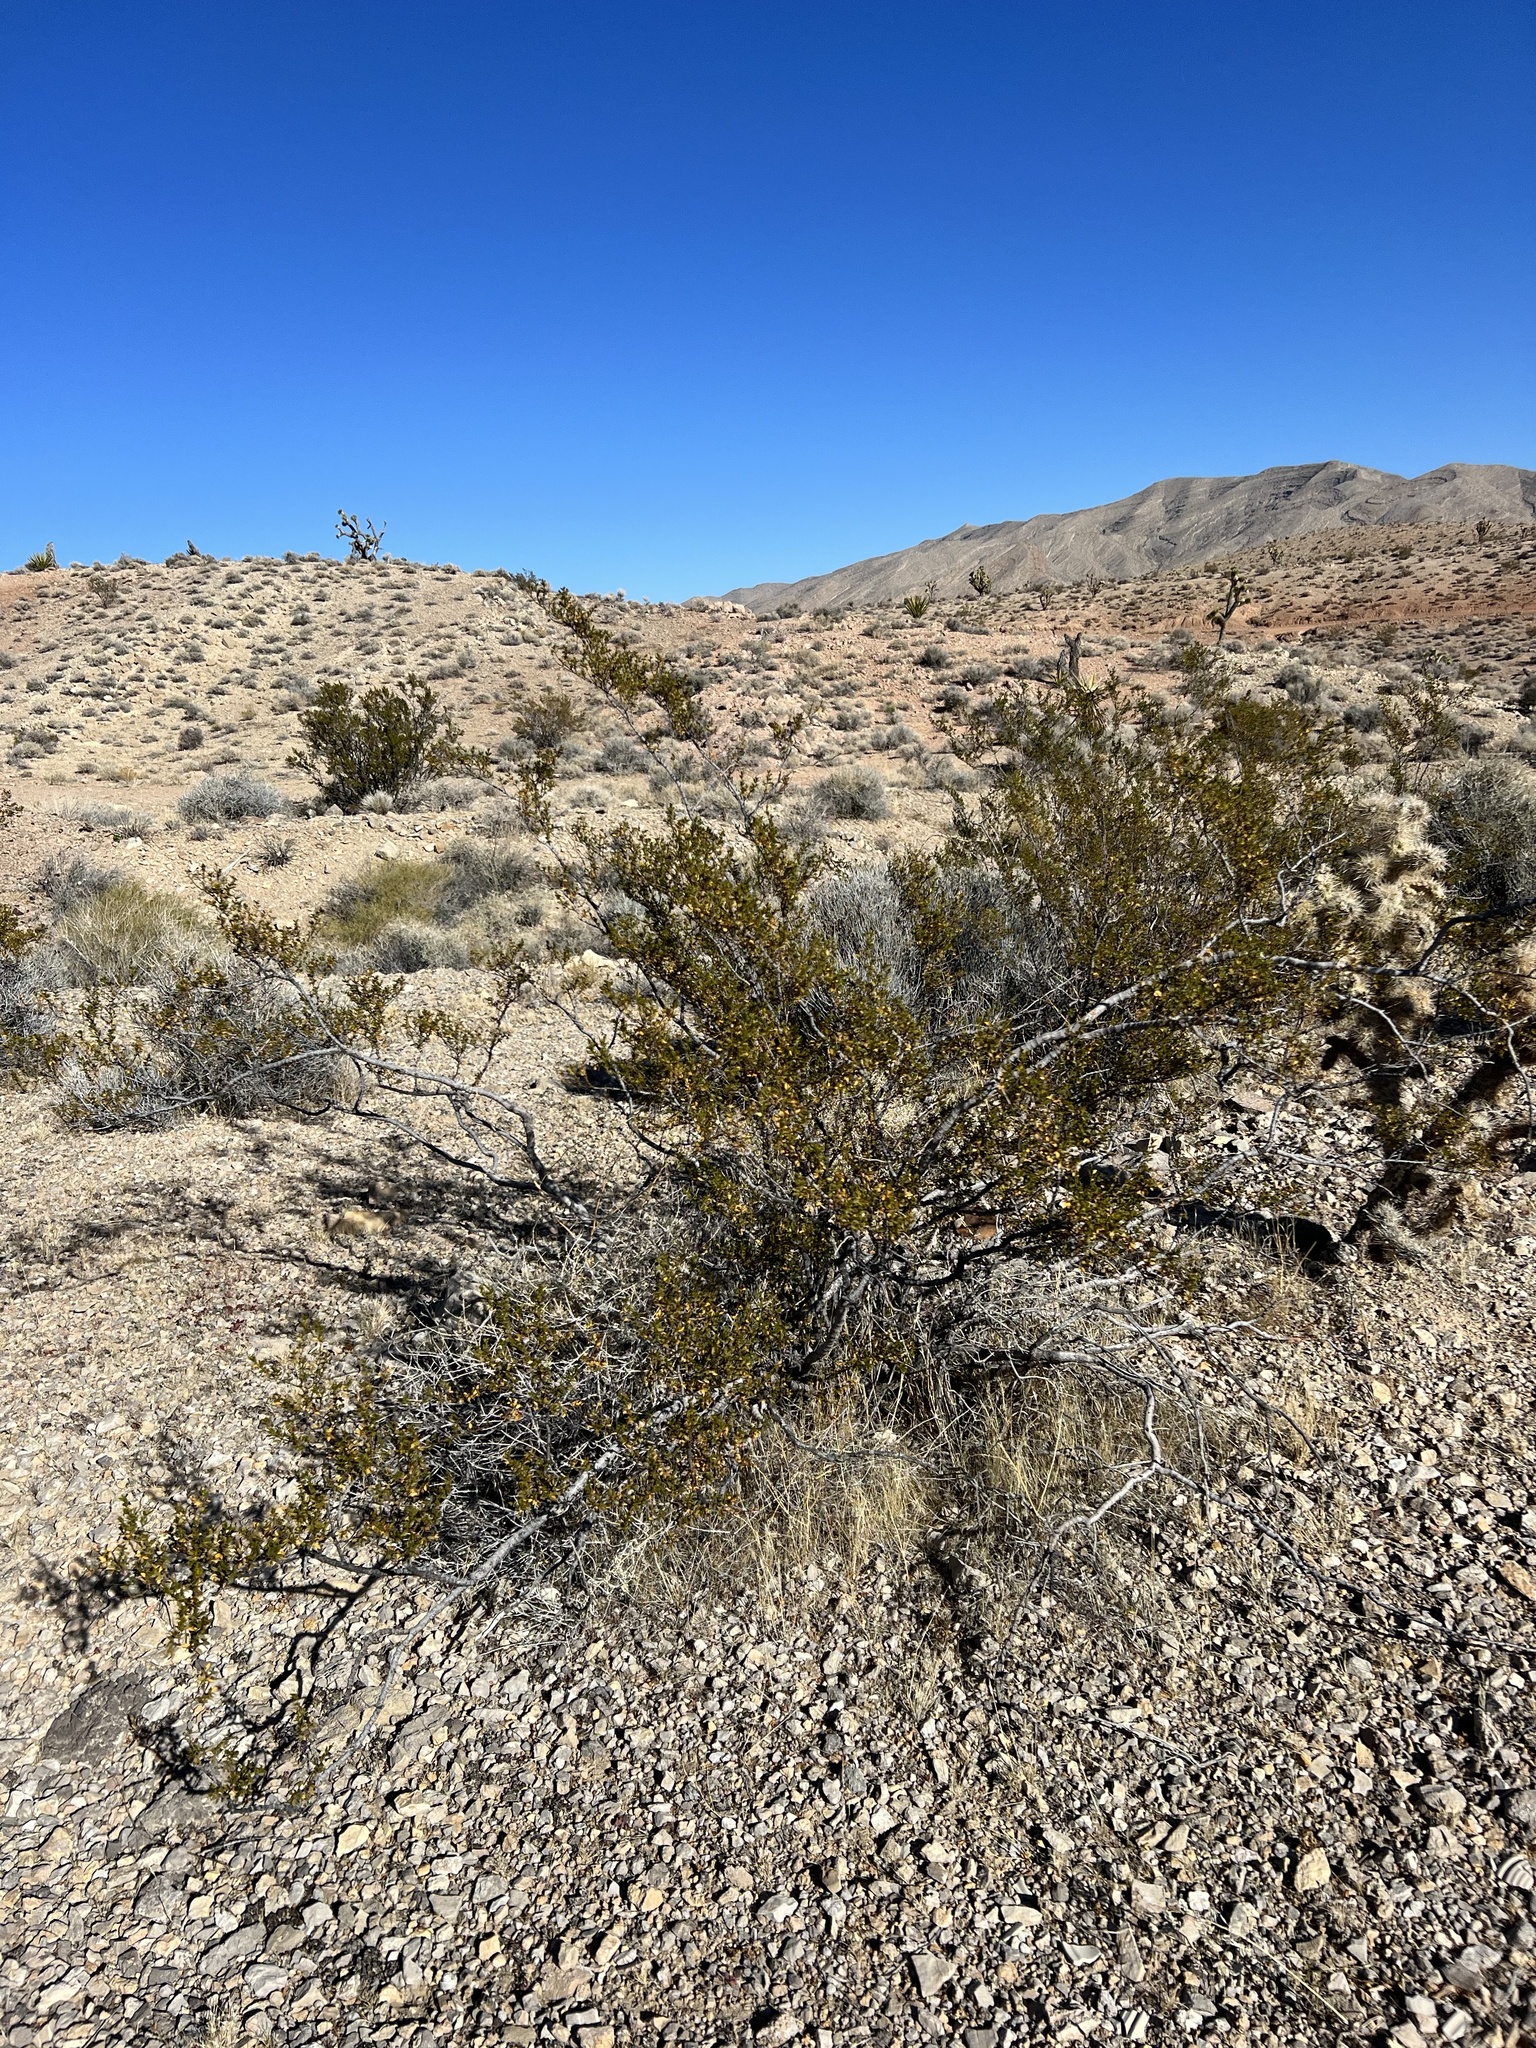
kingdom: Plantae
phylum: Tracheophyta
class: Magnoliopsida
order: Zygophyllales
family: Zygophyllaceae
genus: Larrea
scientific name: Larrea tridentata
